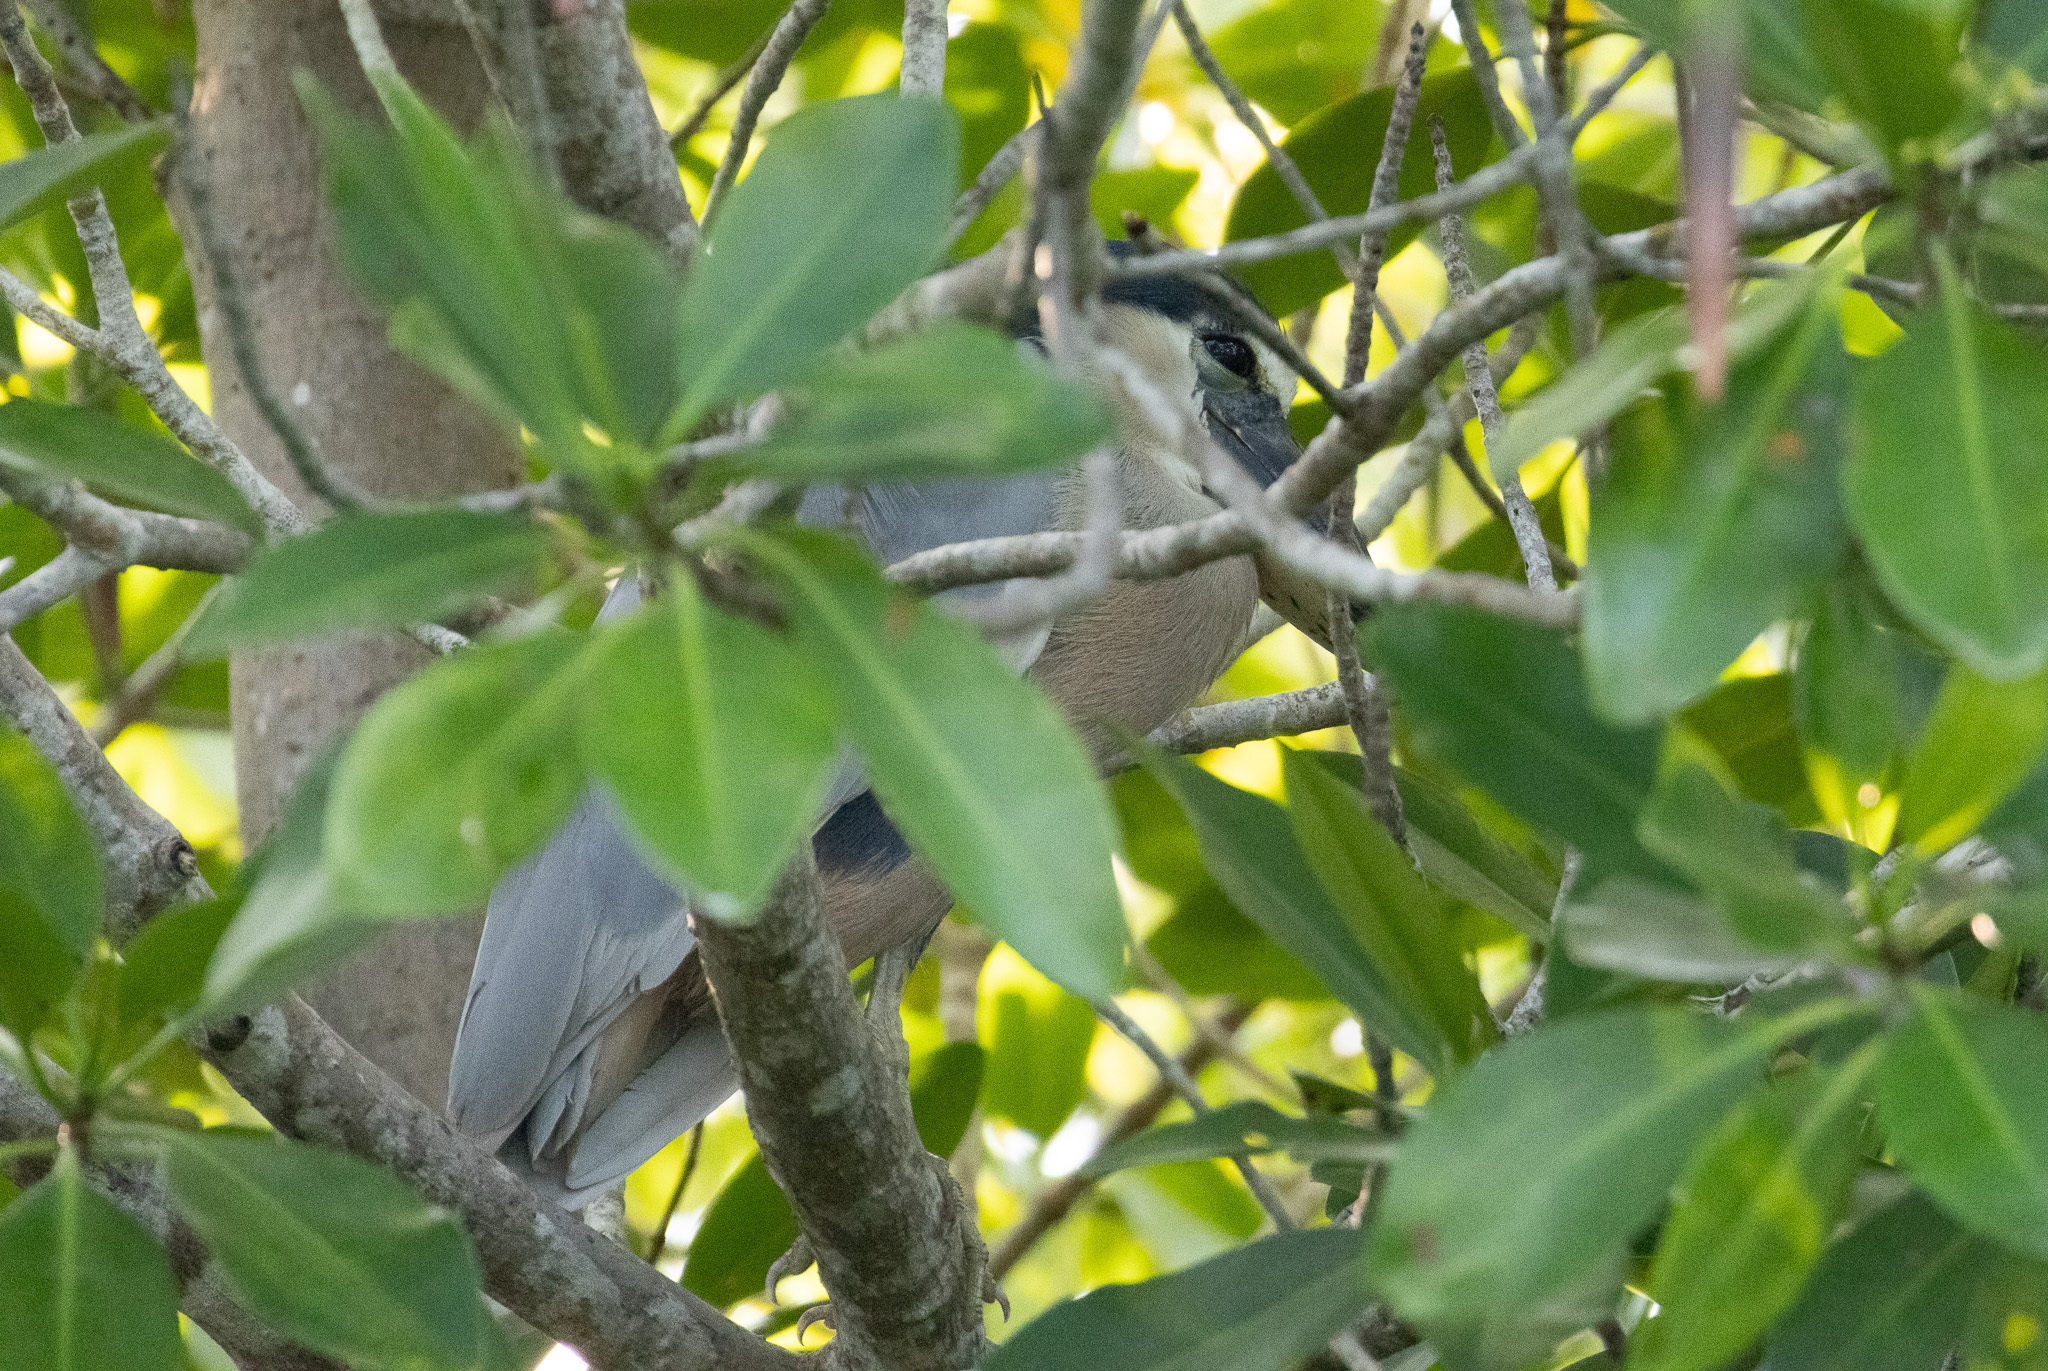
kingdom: Animalia
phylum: Chordata
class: Aves
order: Pelecaniformes
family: Ardeidae
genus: Cochlearius
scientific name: Cochlearius cochlearius
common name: Boat-billed heron
